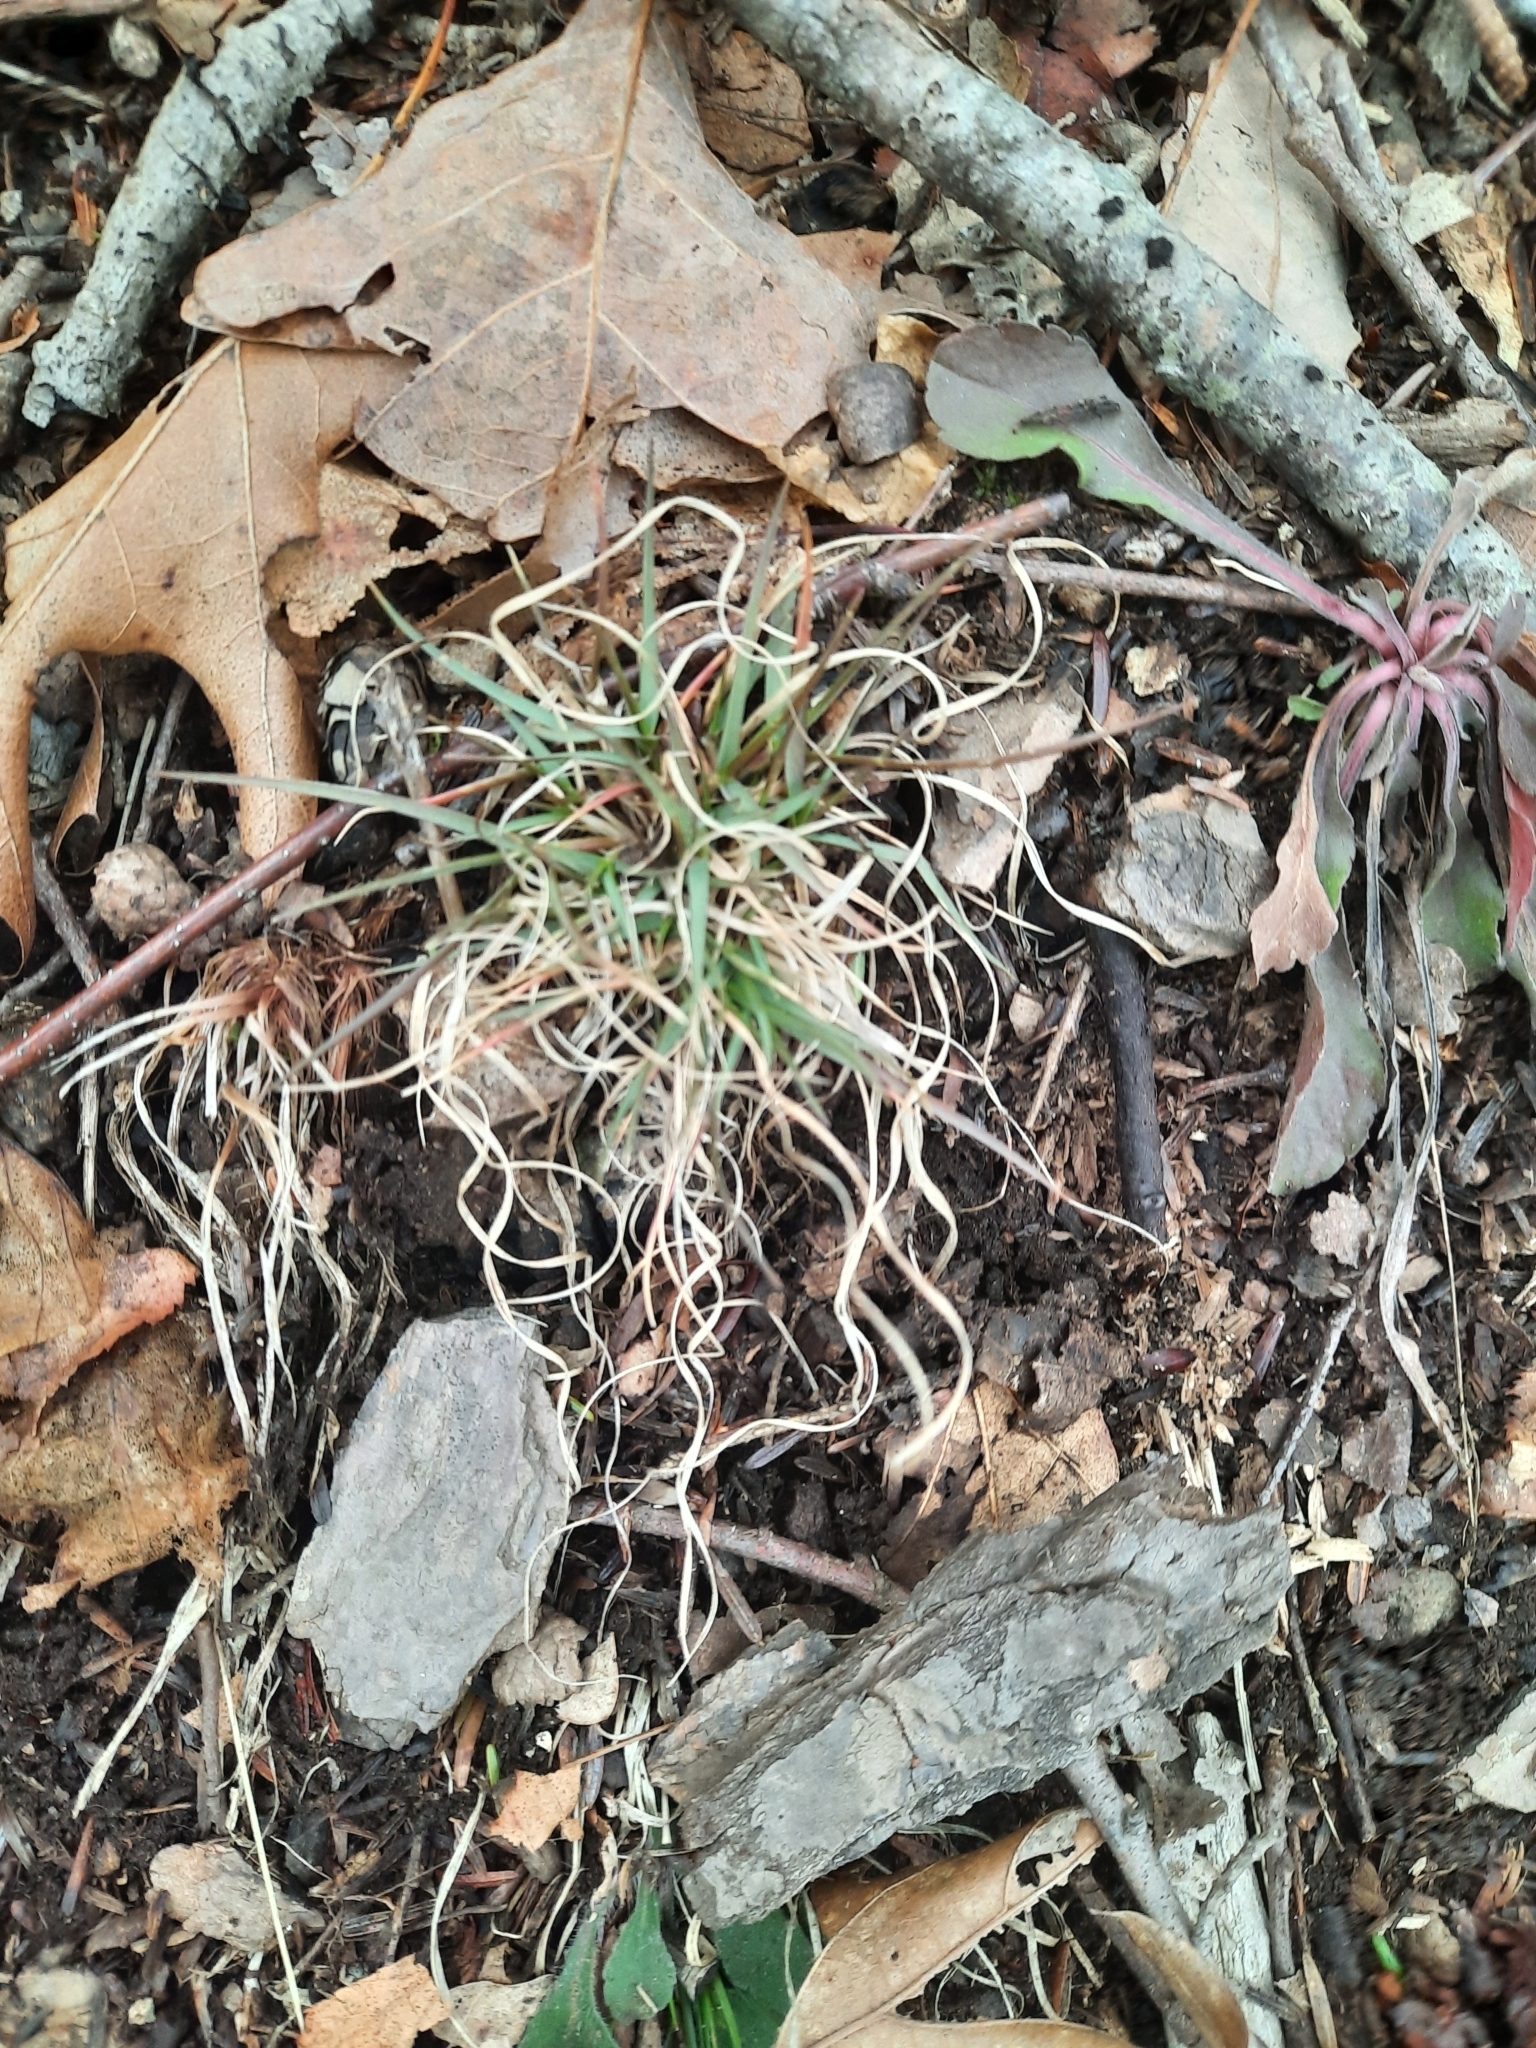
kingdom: Plantae
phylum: Tracheophyta
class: Liliopsida
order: Poales
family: Poaceae
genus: Danthonia
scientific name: Danthonia spicata
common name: Common wild oatgrass
